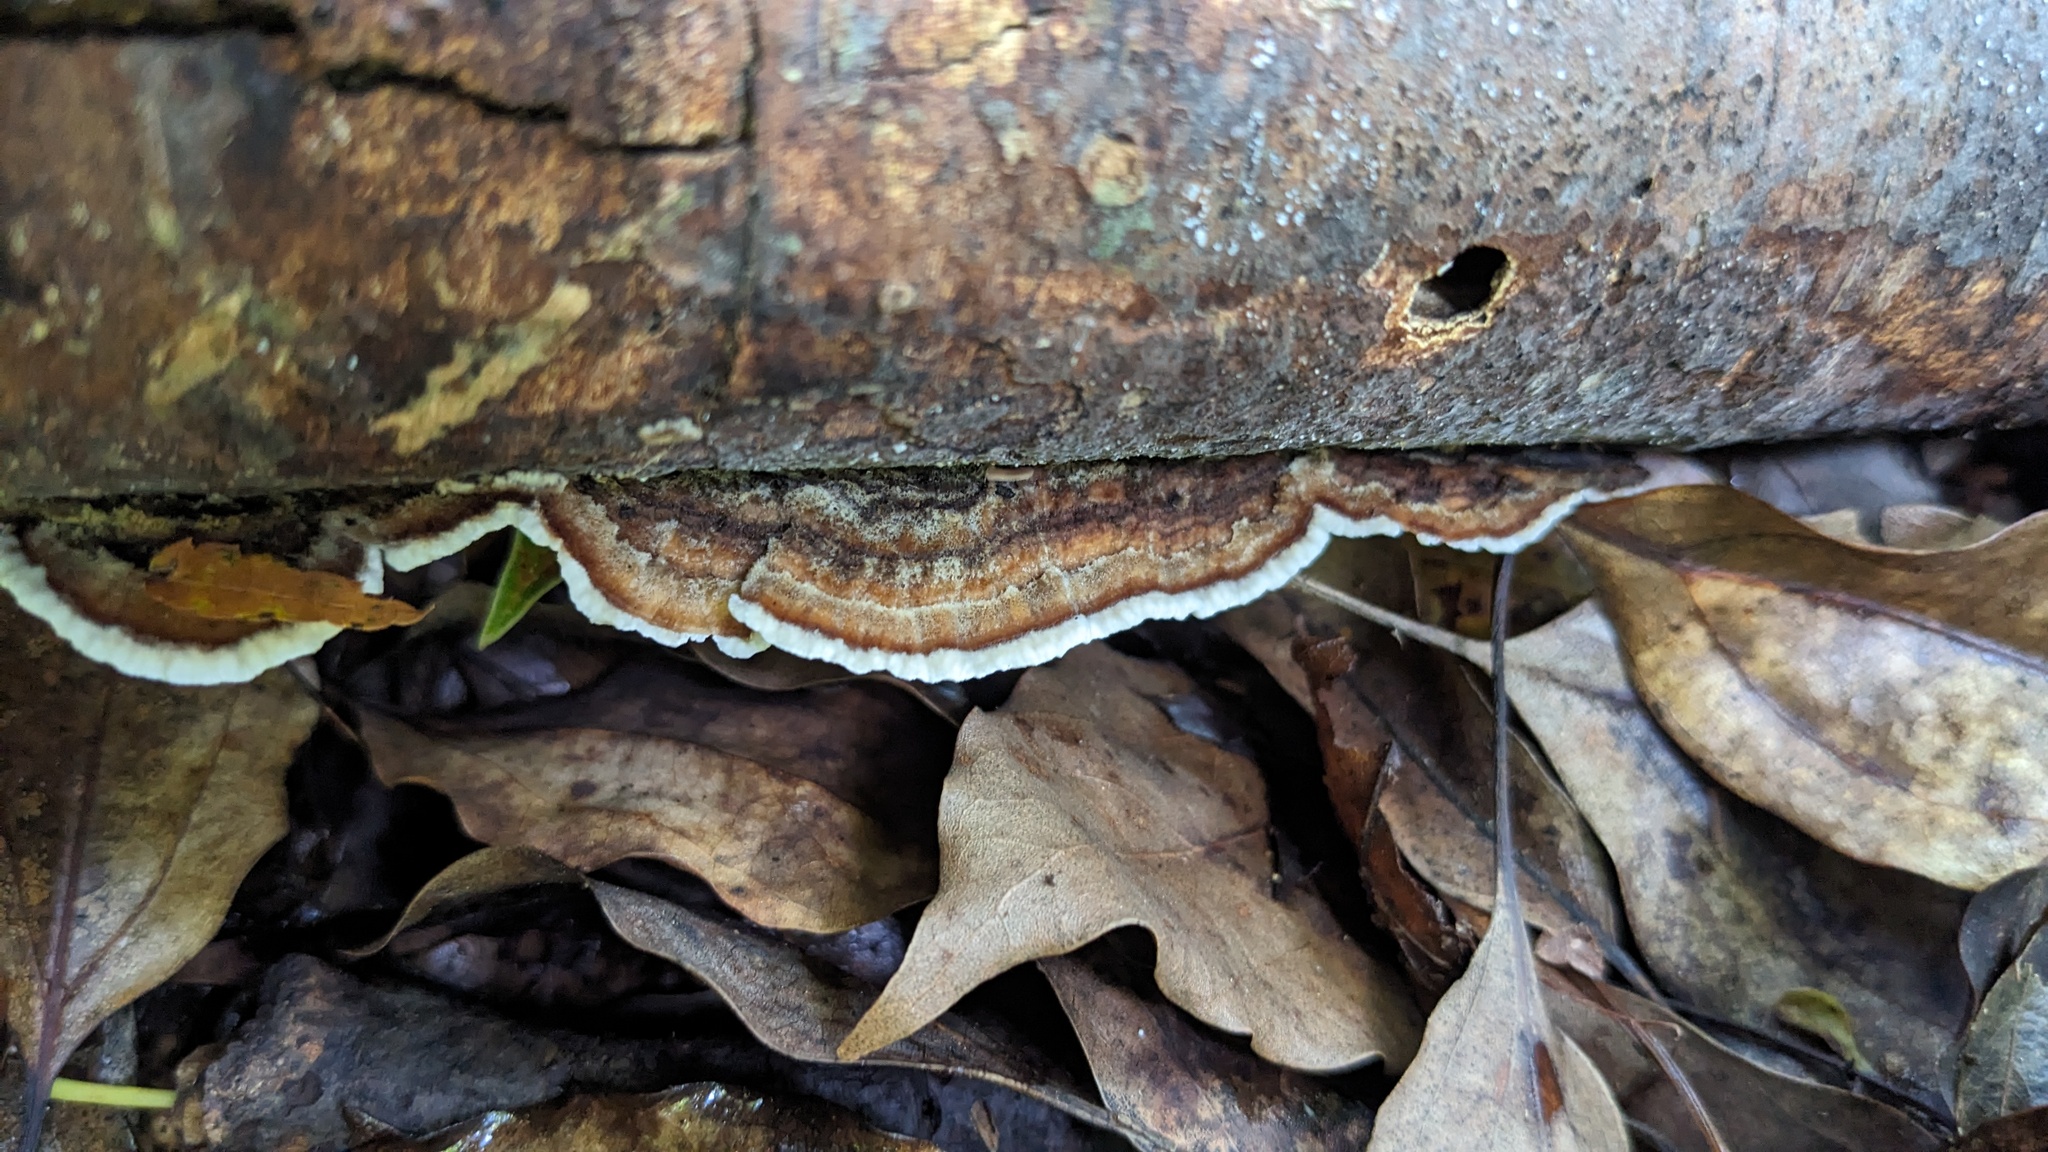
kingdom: Fungi
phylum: Basidiomycota
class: Agaricomycetes
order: Polyporales
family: Polyporaceae
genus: Lopharia
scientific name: Lopharia cinerascens
